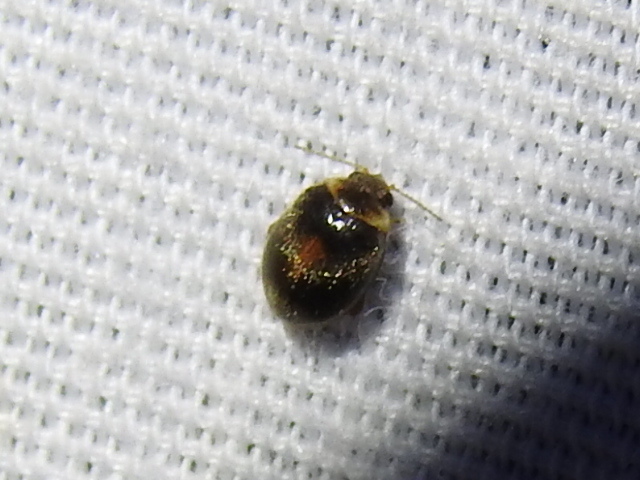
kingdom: Animalia
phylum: Arthropoda
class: Insecta
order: Coleoptera
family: Scirtidae
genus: Scirtes
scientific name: Scirtes orbiculatus
